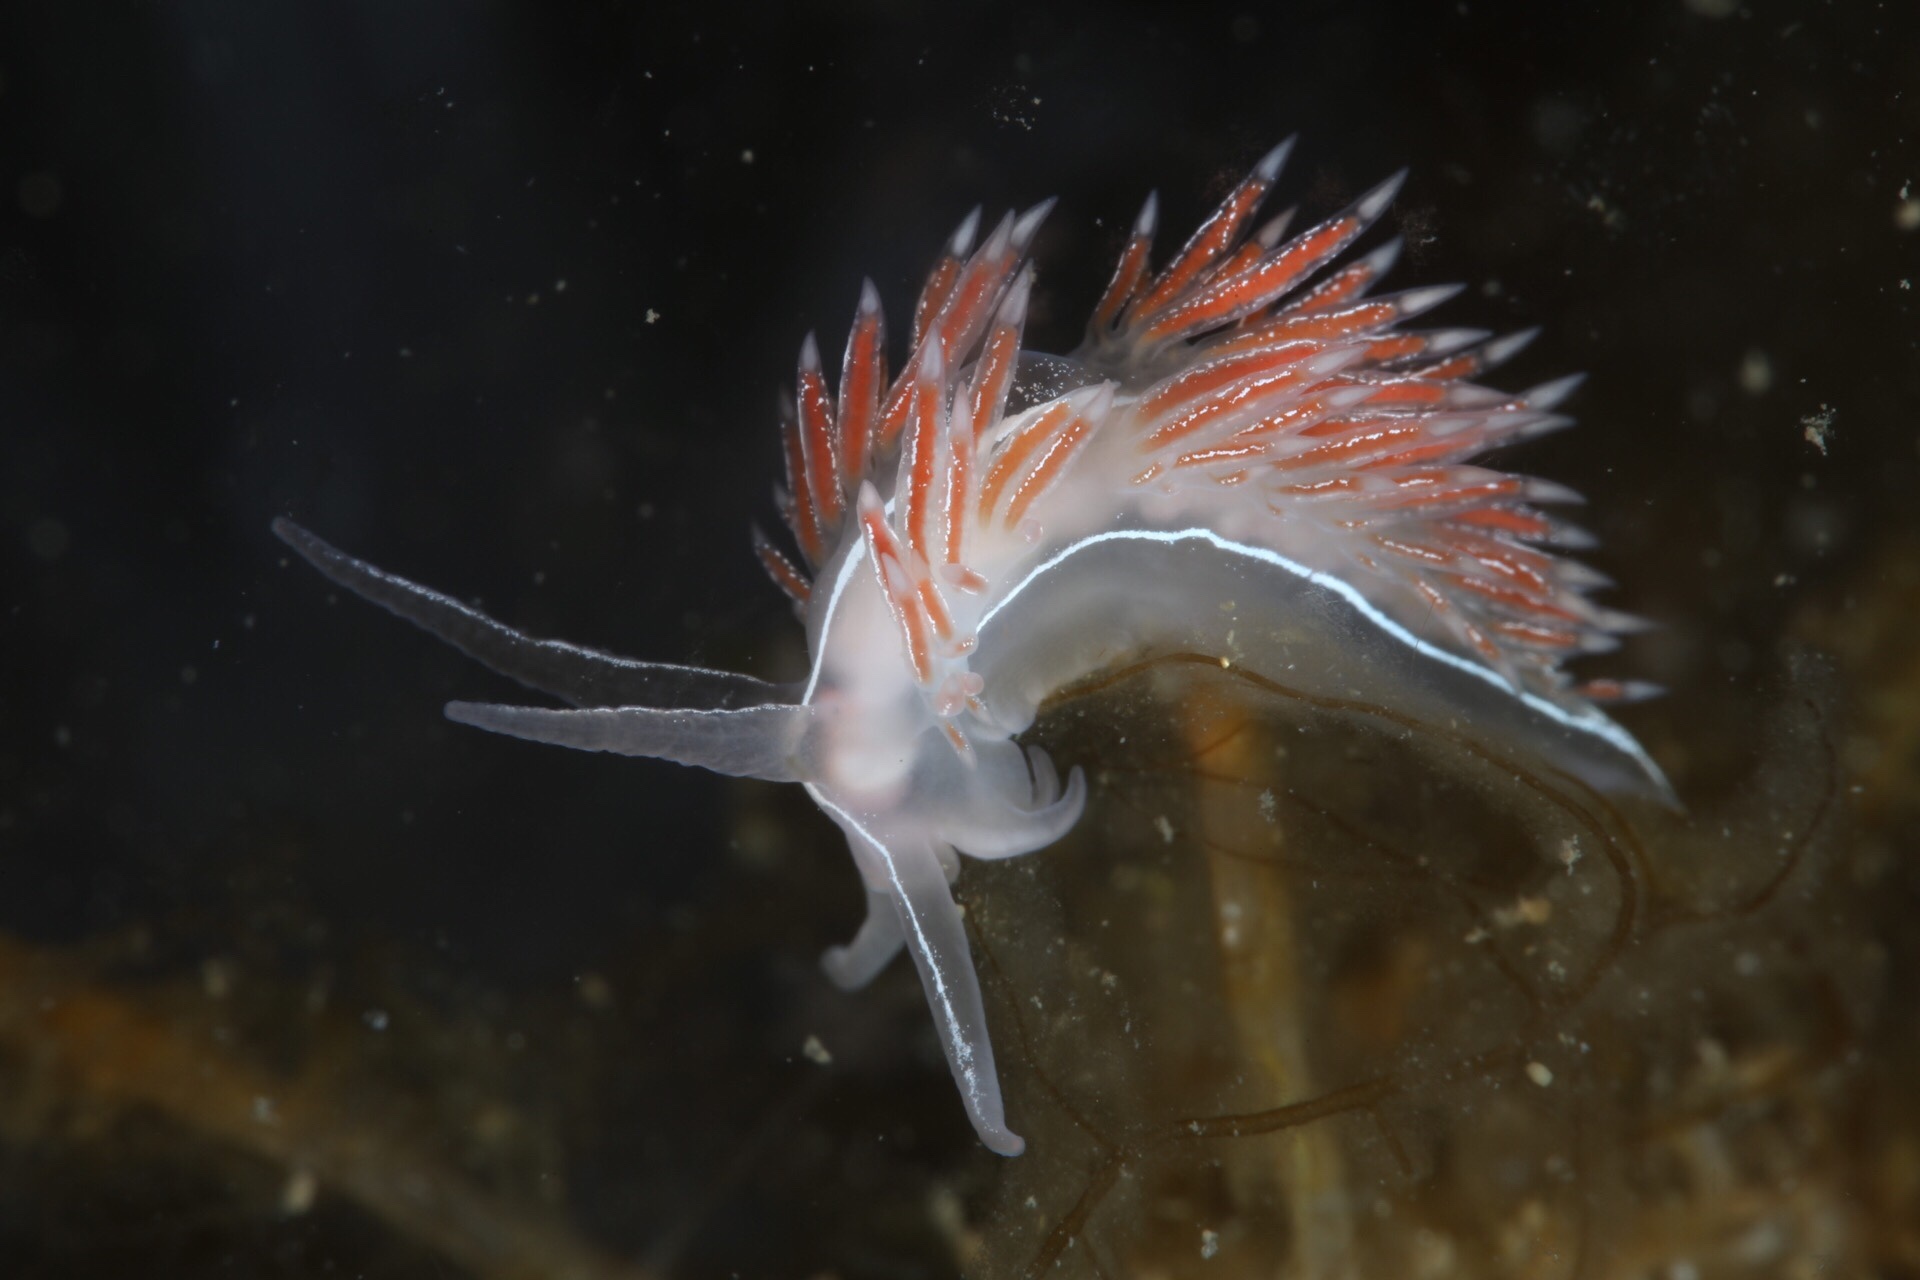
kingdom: Animalia
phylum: Mollusca
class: Gastropoda
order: Nudibranchia
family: Coryphellidae
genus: Coryphella
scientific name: Coryphella chriskaugei
